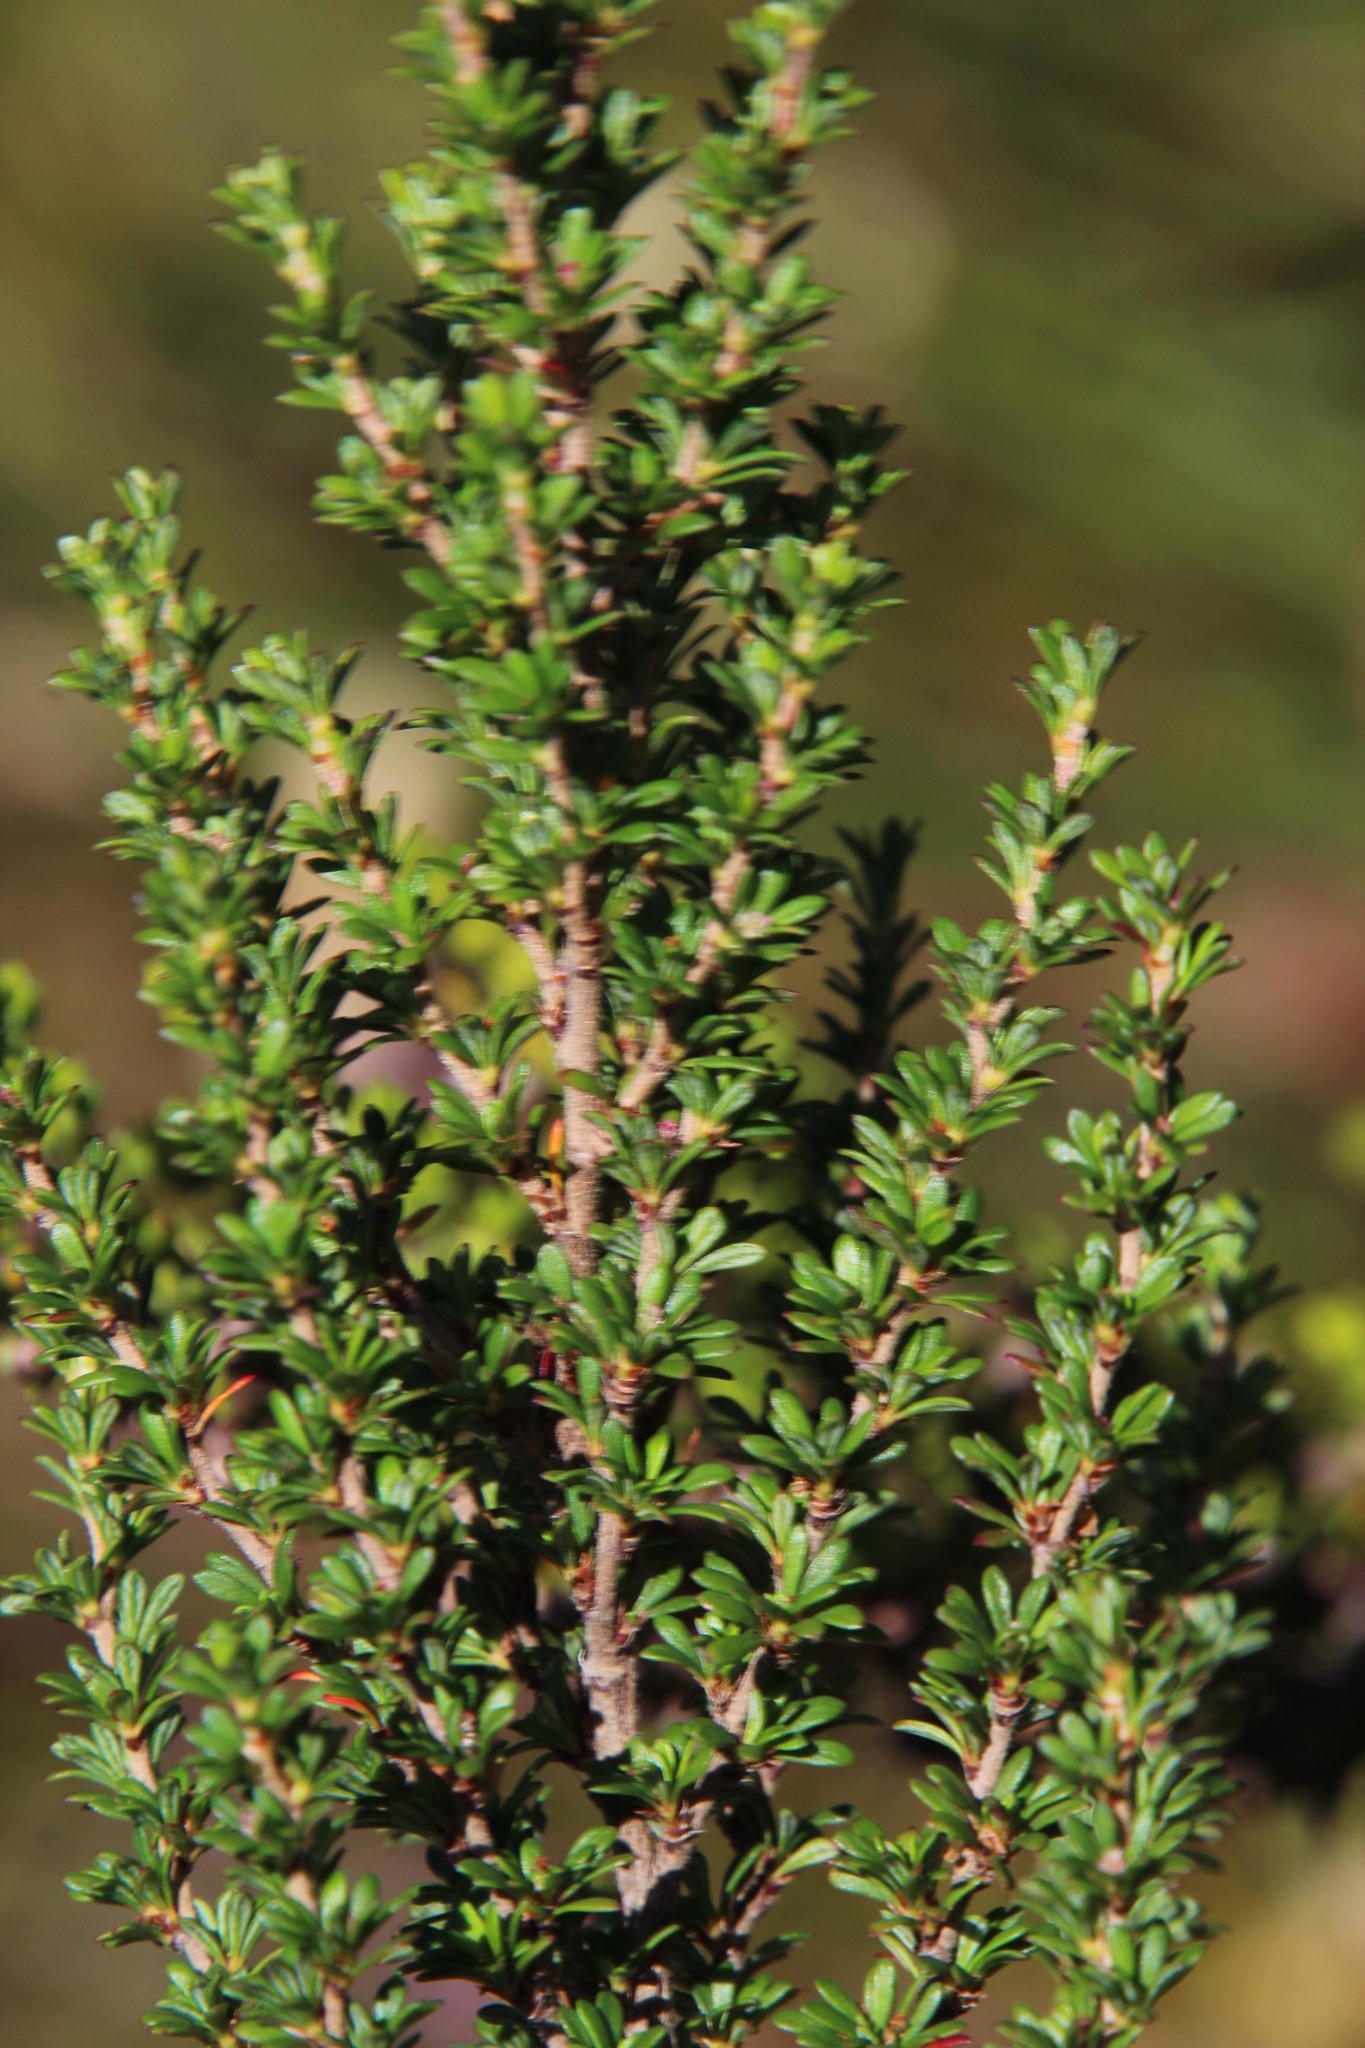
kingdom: Plantae
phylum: Tracheophyta
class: Magnoliopsida
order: Rosales
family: Rosaceae
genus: Cliffortia
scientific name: Cliffortia serpyllifolia
